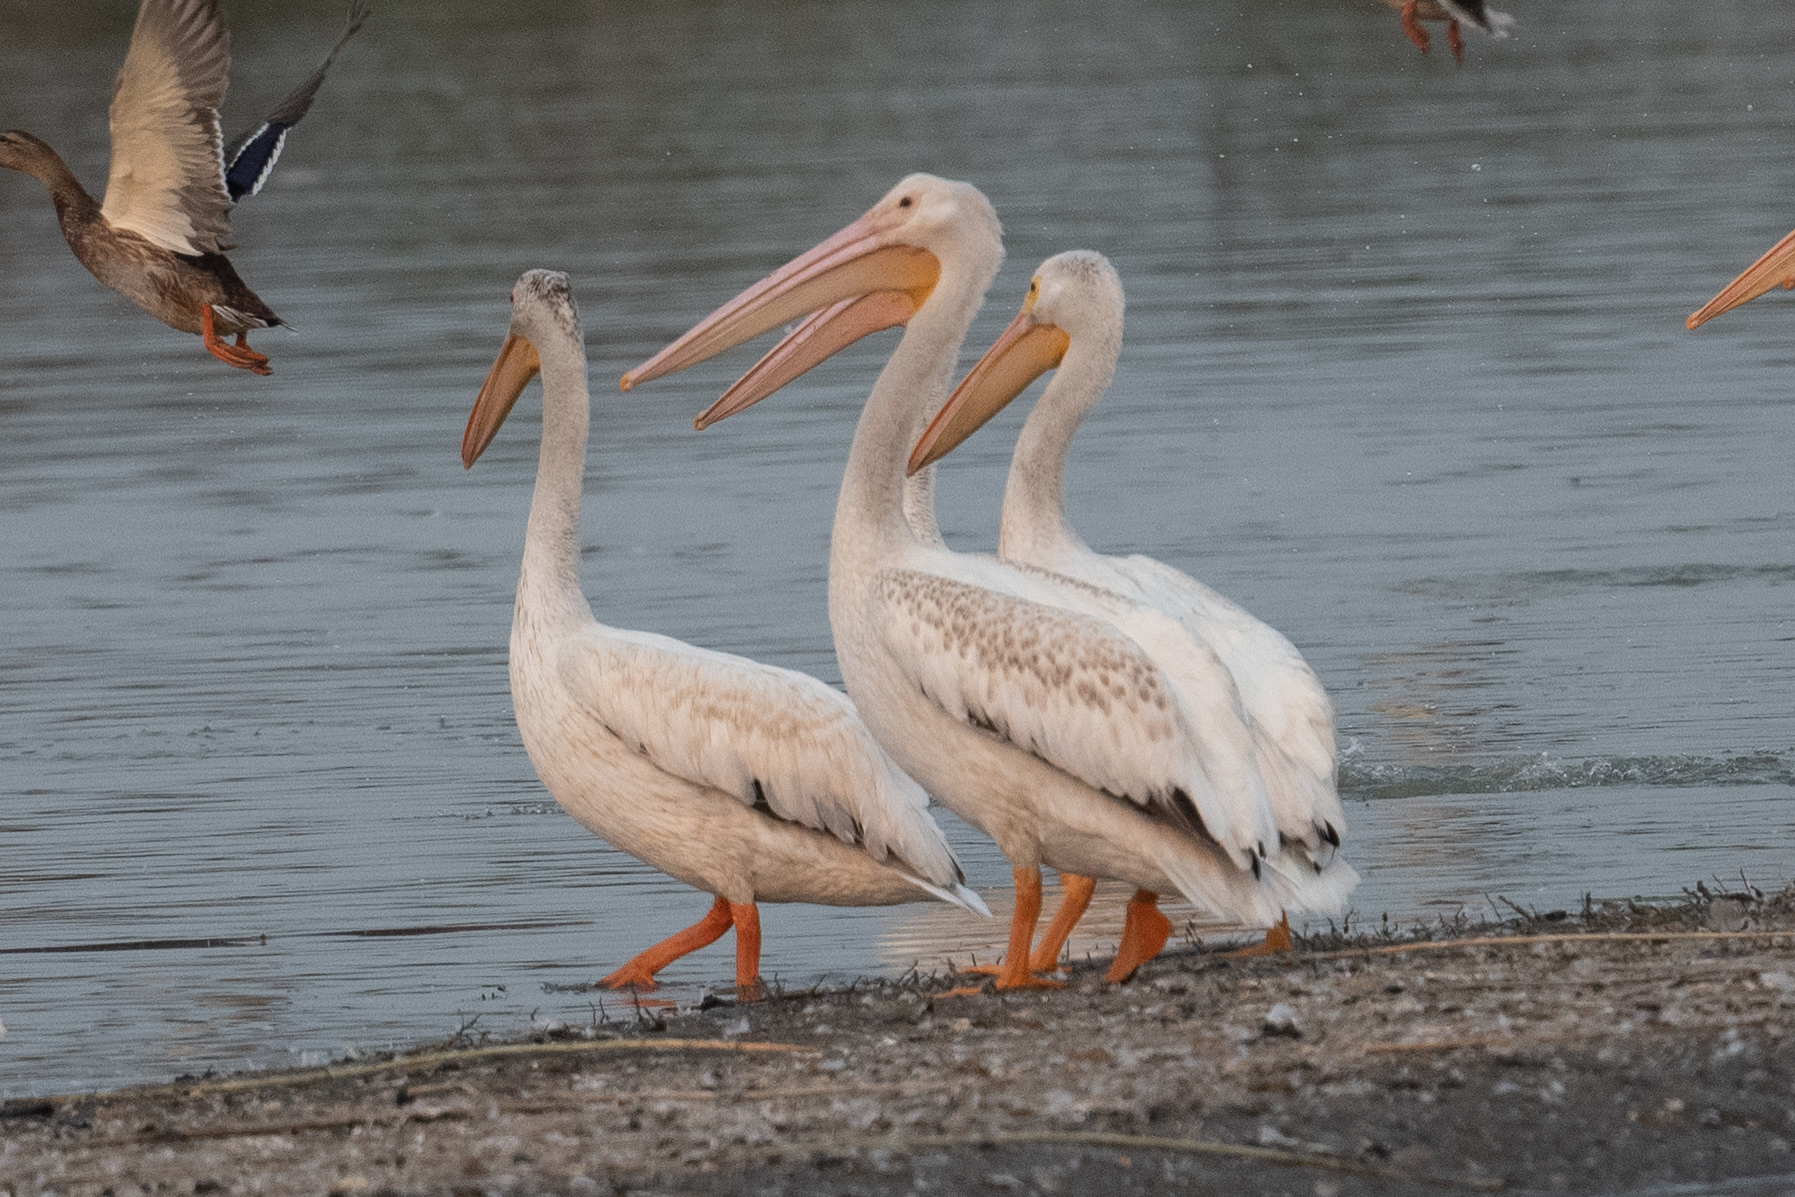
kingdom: Animalia
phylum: Chordata
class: Aves
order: Pelecaniformes
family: Pelecanidae
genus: Pelecanus
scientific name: Pelecanus erythrorhynchos
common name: American white pelican
